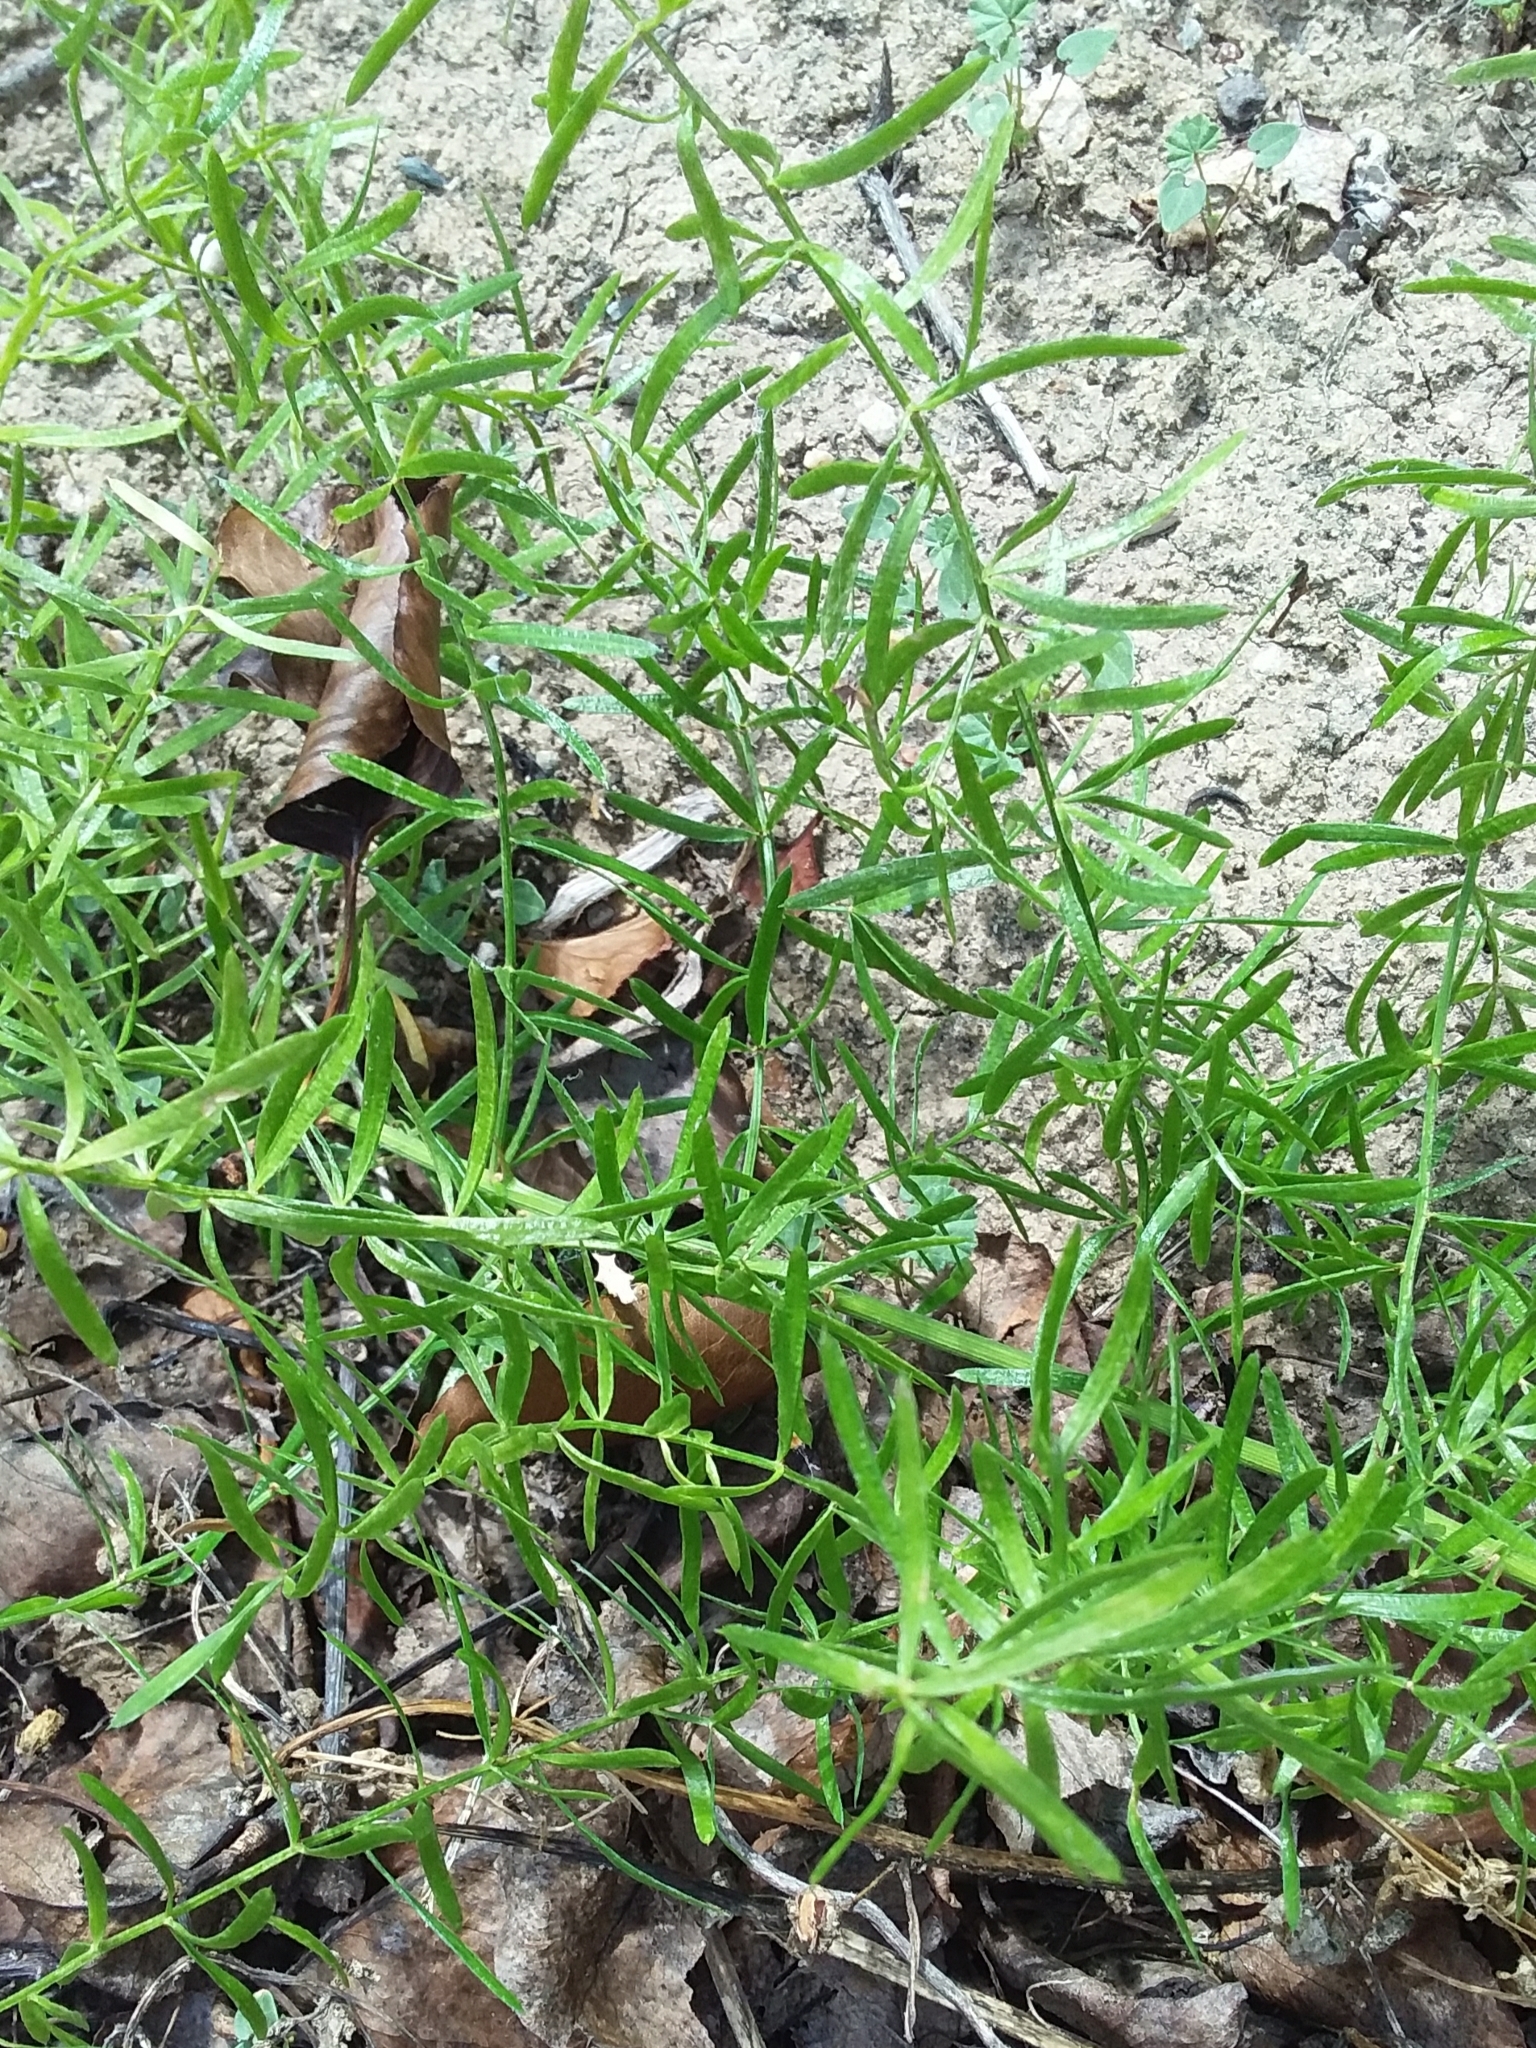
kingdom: Plantae
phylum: Tracheophyta
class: Liliopsida
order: Asparagales
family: Asparagaceae
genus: Asparagus
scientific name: Asparagus aethiopicus
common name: Sprenger's asparagus fern
